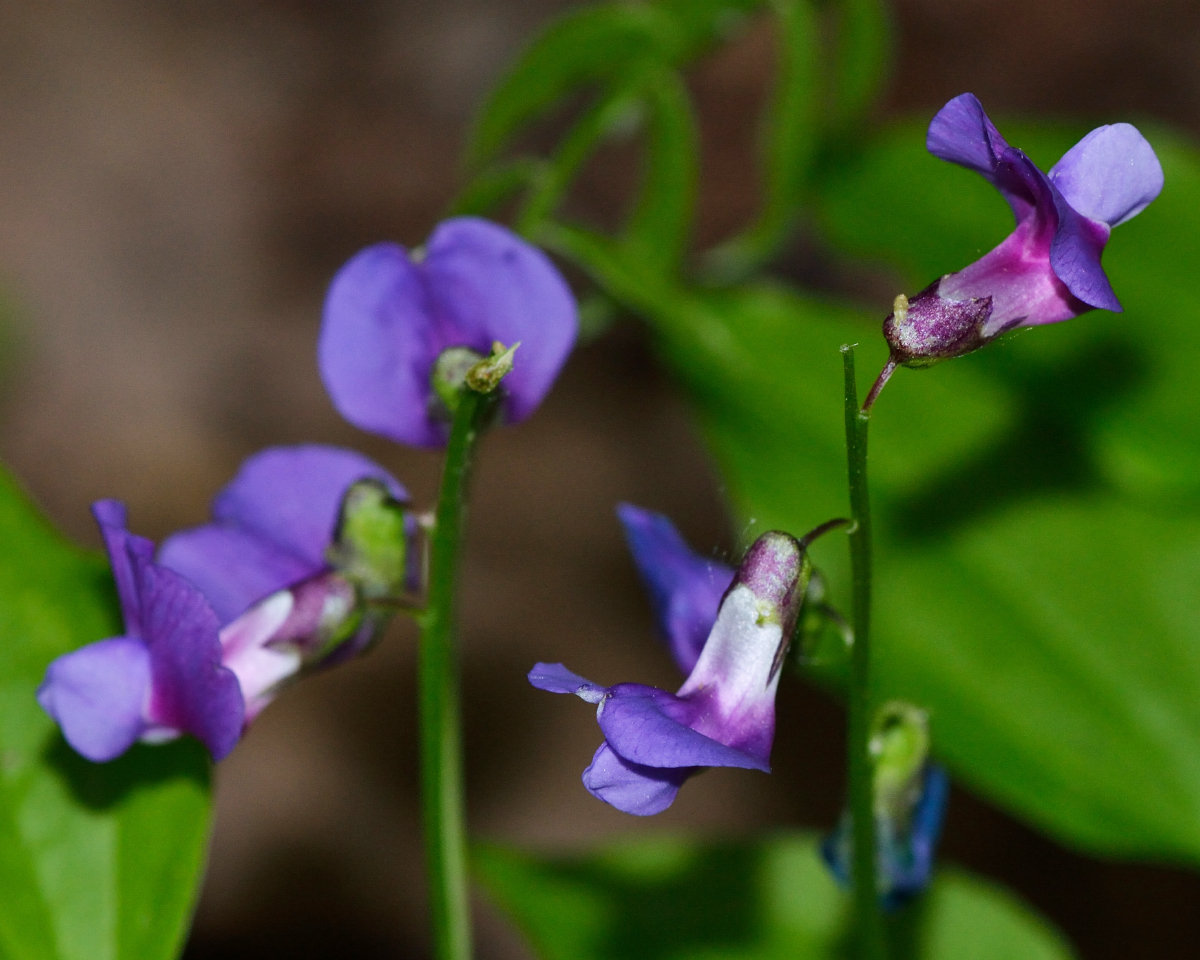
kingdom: Plantae
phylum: Tracheophyta
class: Magnoliopsida
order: Fabales
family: Fabaceae
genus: Lathyrus
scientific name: Lathyrus vernus
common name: Spring pea
